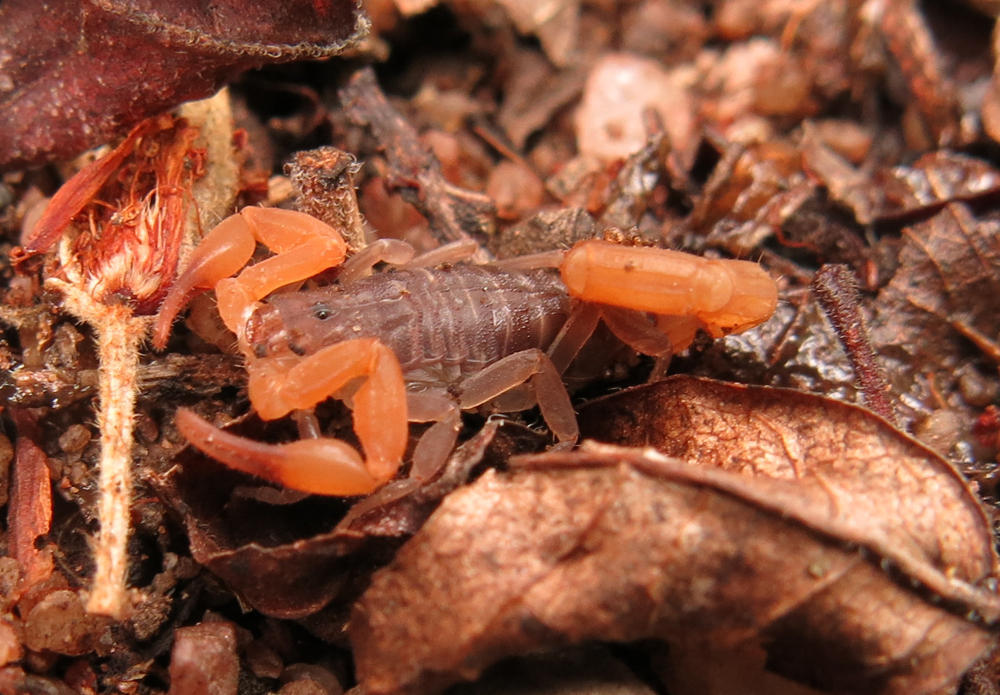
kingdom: Animalia
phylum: Arthropoda
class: Arachnida
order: Scorpiones
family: Buthidae
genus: Pseudolychas
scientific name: Pseudolychas ochraceus
